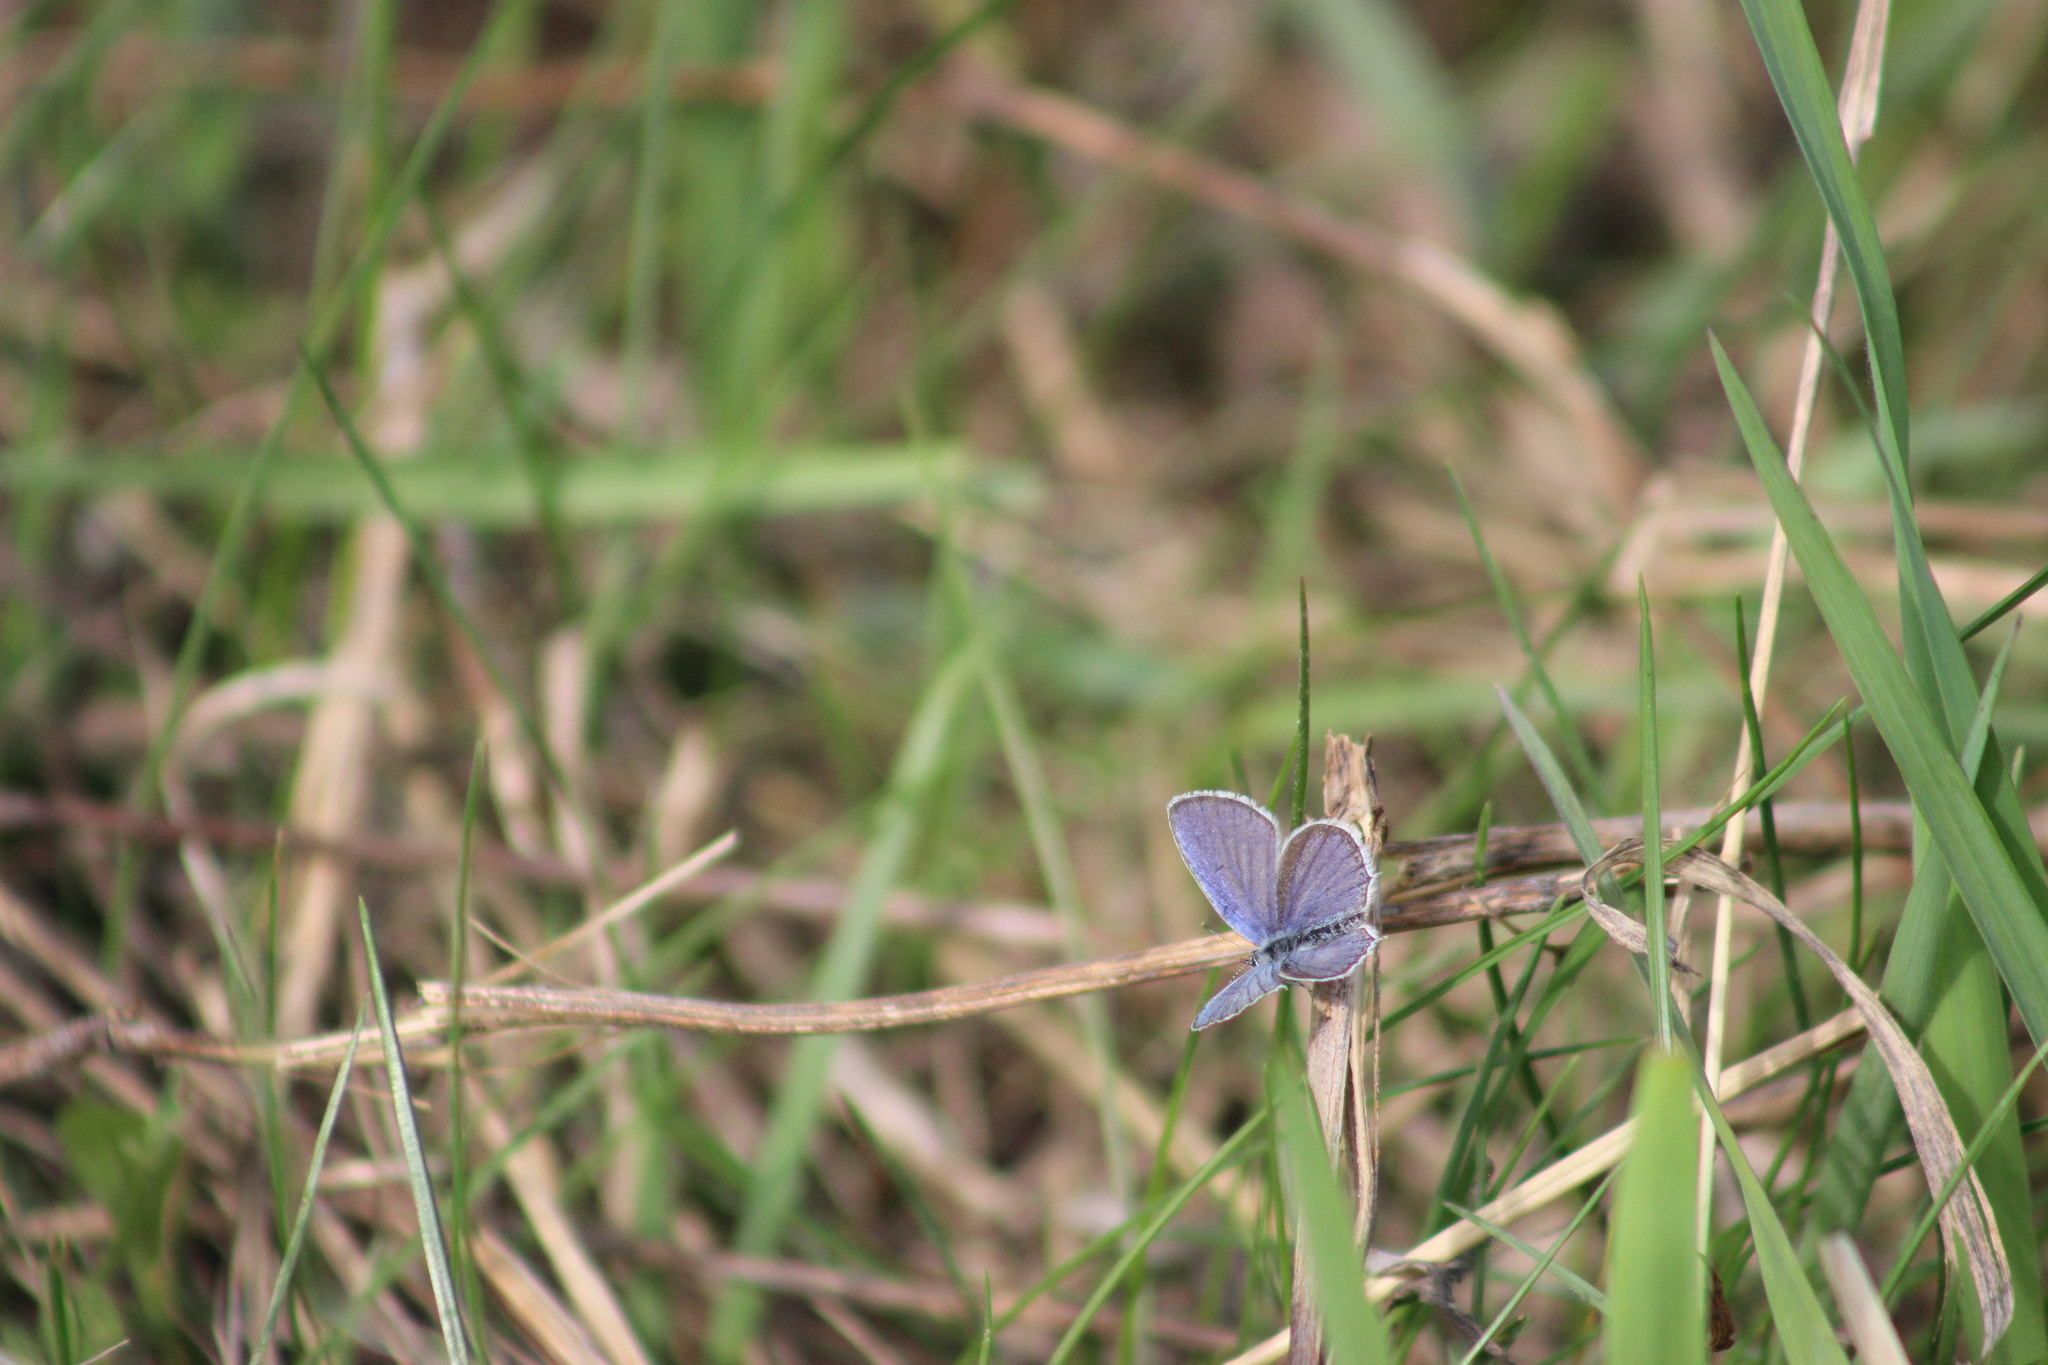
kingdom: Animalia
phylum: Arthropoda
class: Insecta
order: Lepidoptera
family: Lycaenidae
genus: Elkalyce
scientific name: Elkalyce argiades
